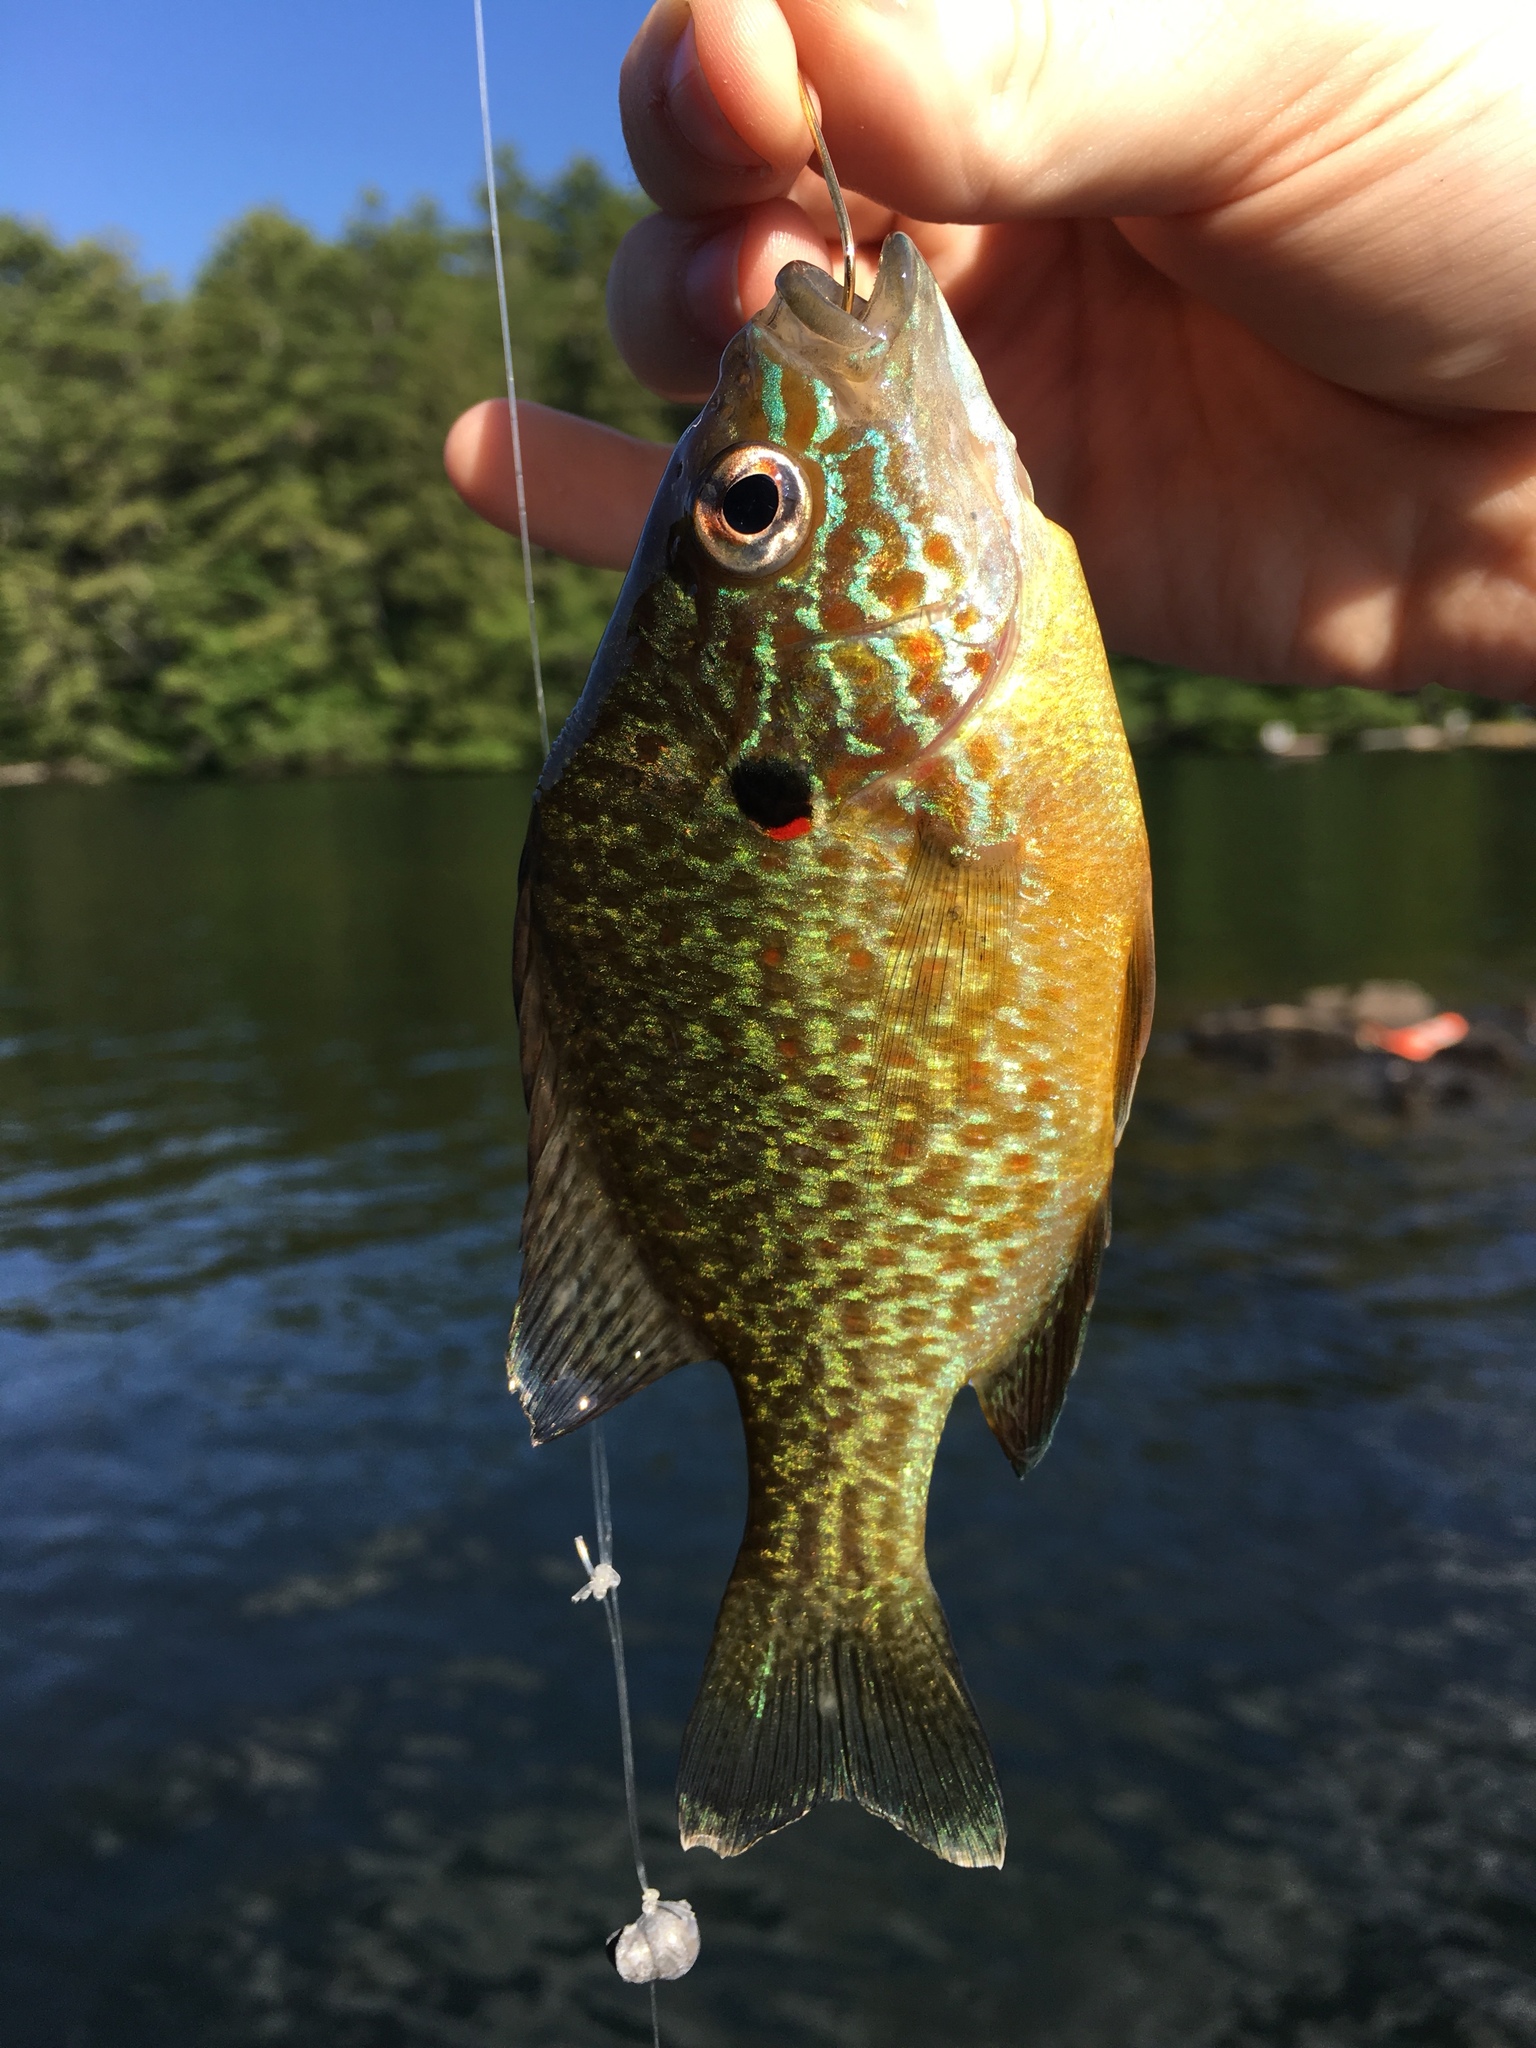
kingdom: Animalia
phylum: Chordata
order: Perciformes
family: Centrarchidae
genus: Lepomis
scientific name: Lepomis gibbosus
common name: Pumpkinseed
